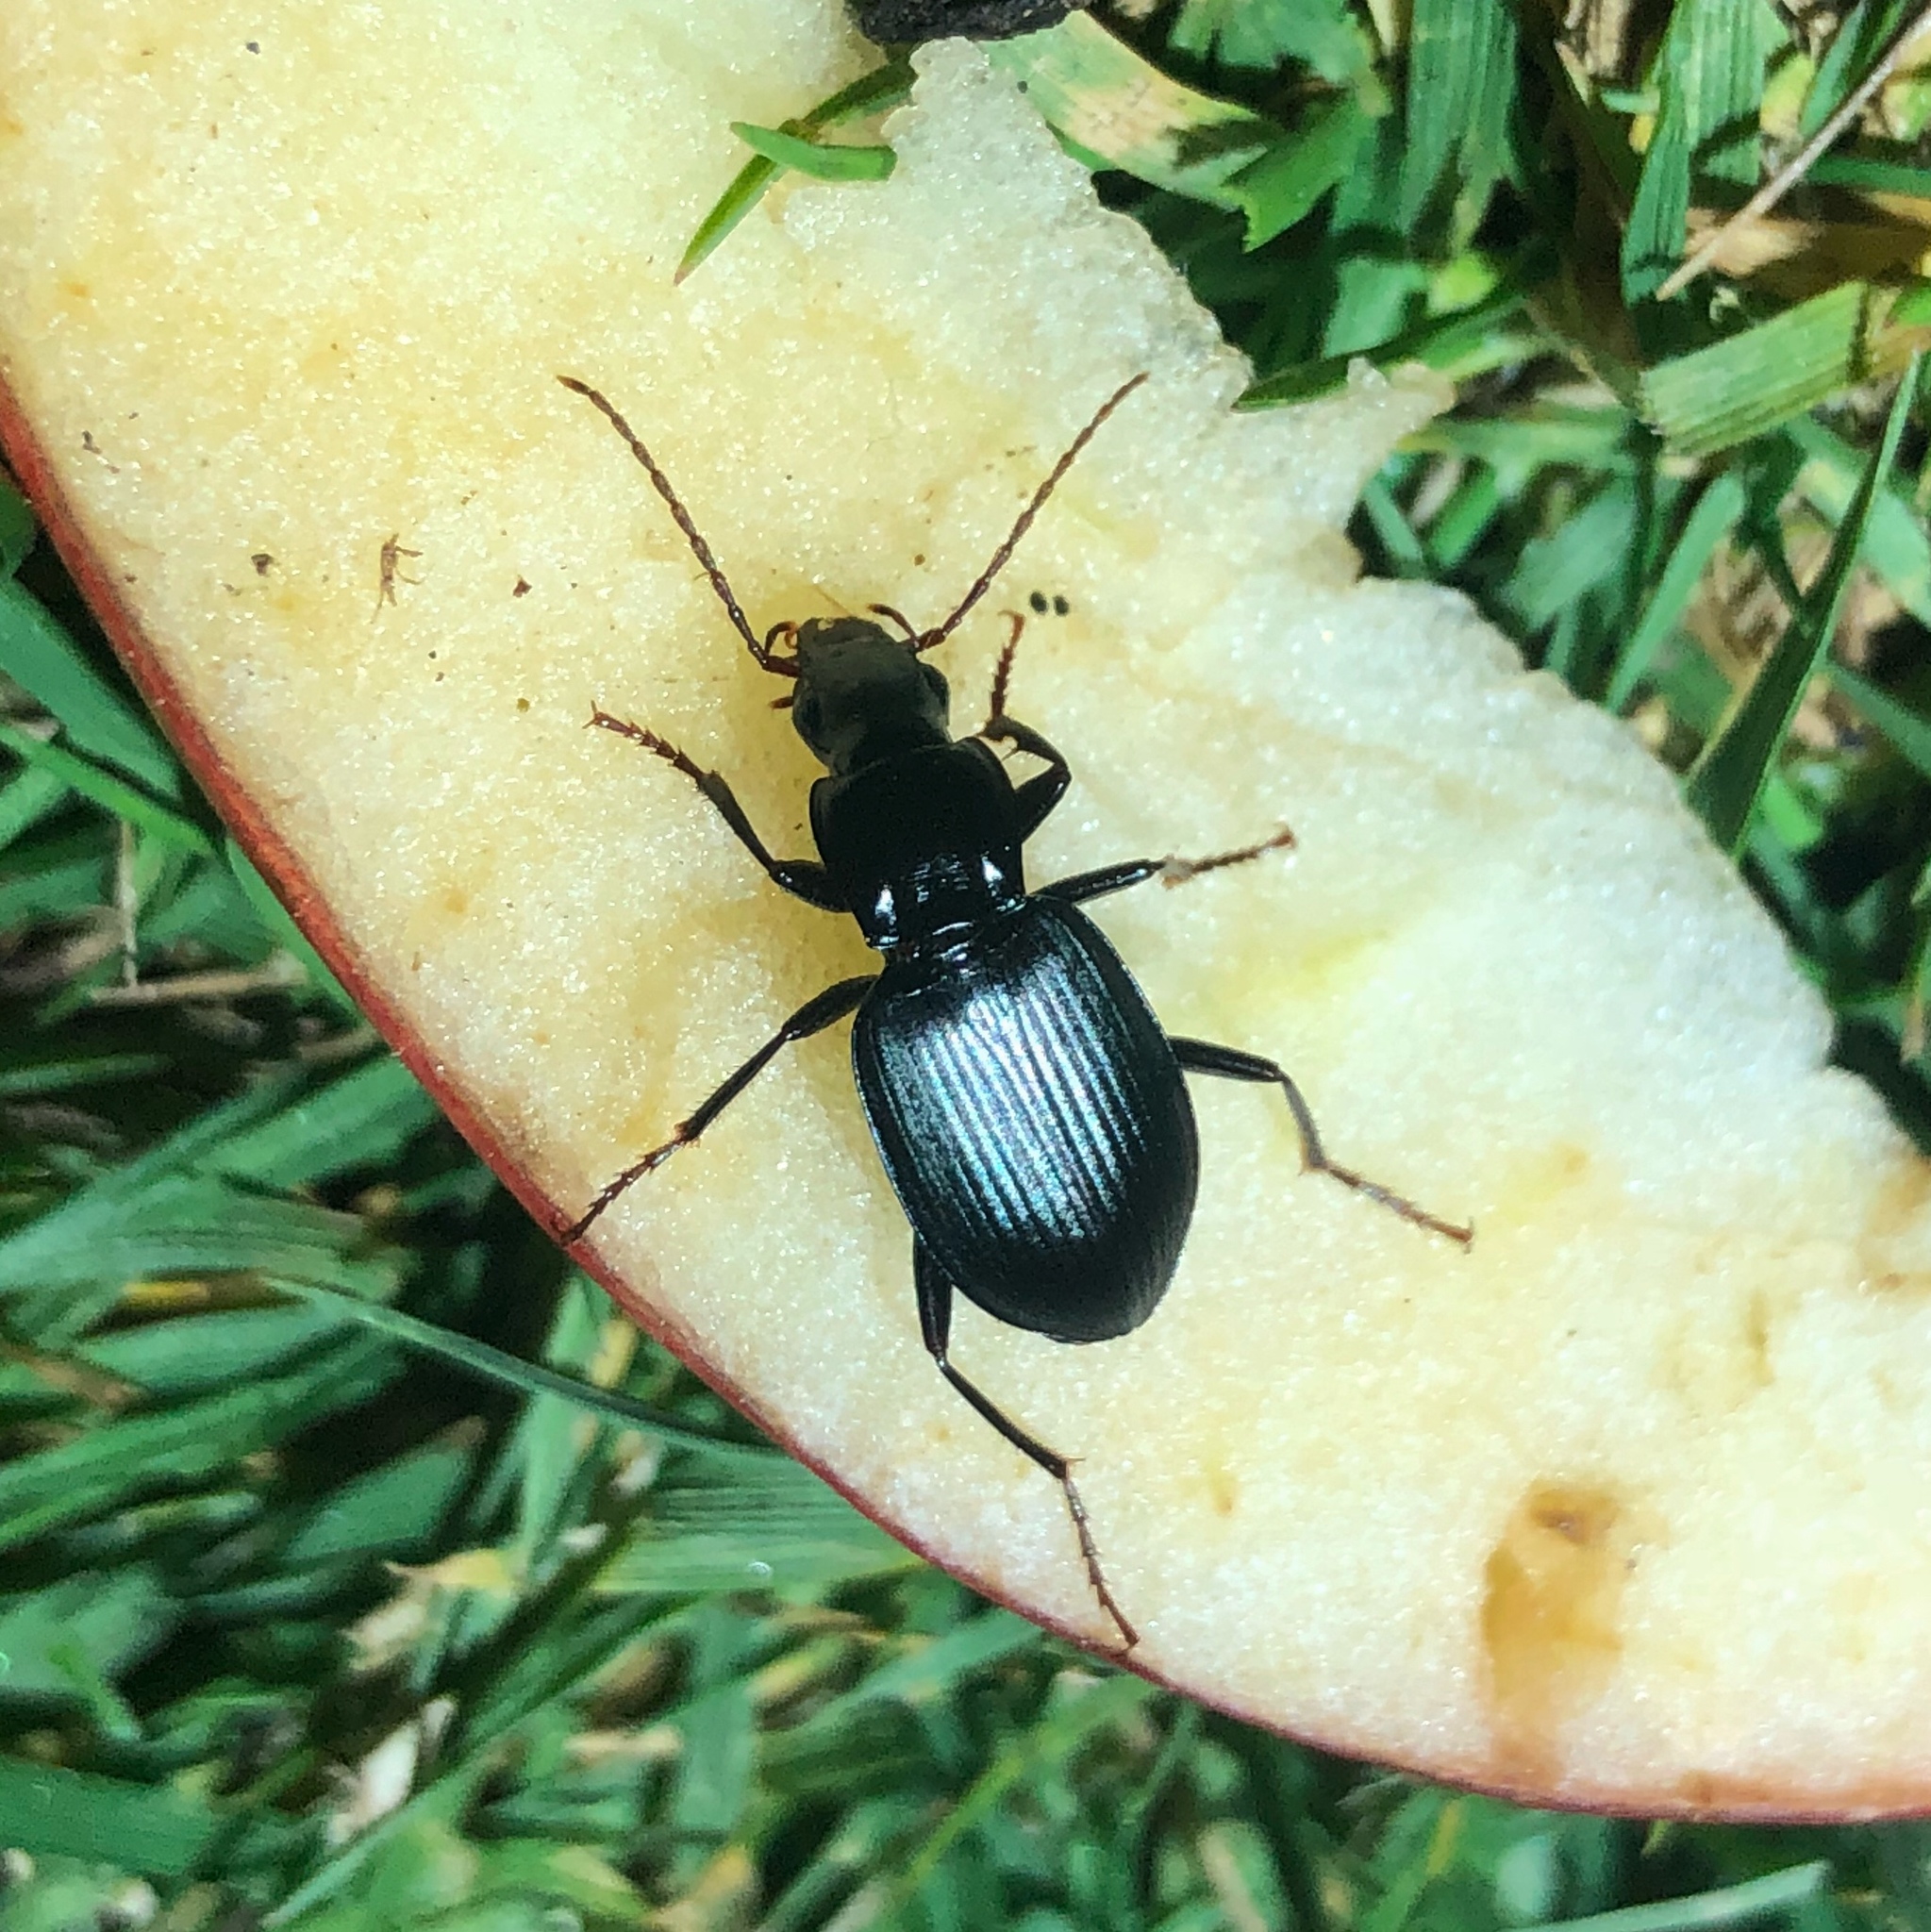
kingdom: Animalia
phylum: Arthropoda
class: Insecta
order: Coleoptera
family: Carabidae
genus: Laemostenus
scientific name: Laemostenus complanatus
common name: Cosmopolitan ground beetle
